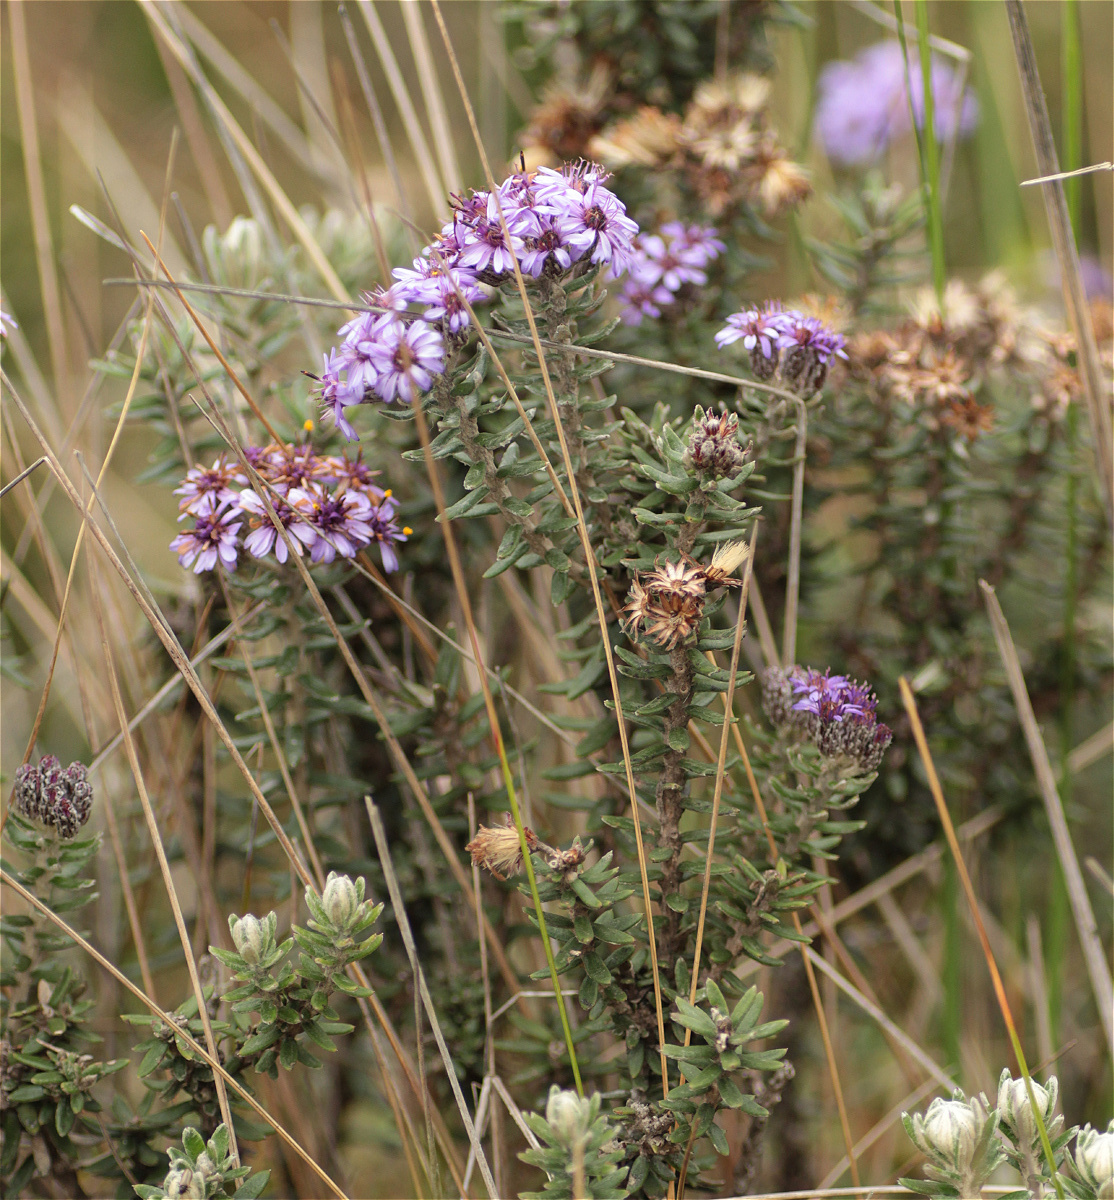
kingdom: Plantae
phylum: Tracheophyta
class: Magnoliopsida
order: Asterales
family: Asteraceae
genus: Linochilus
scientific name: Linochilus phylicoides
